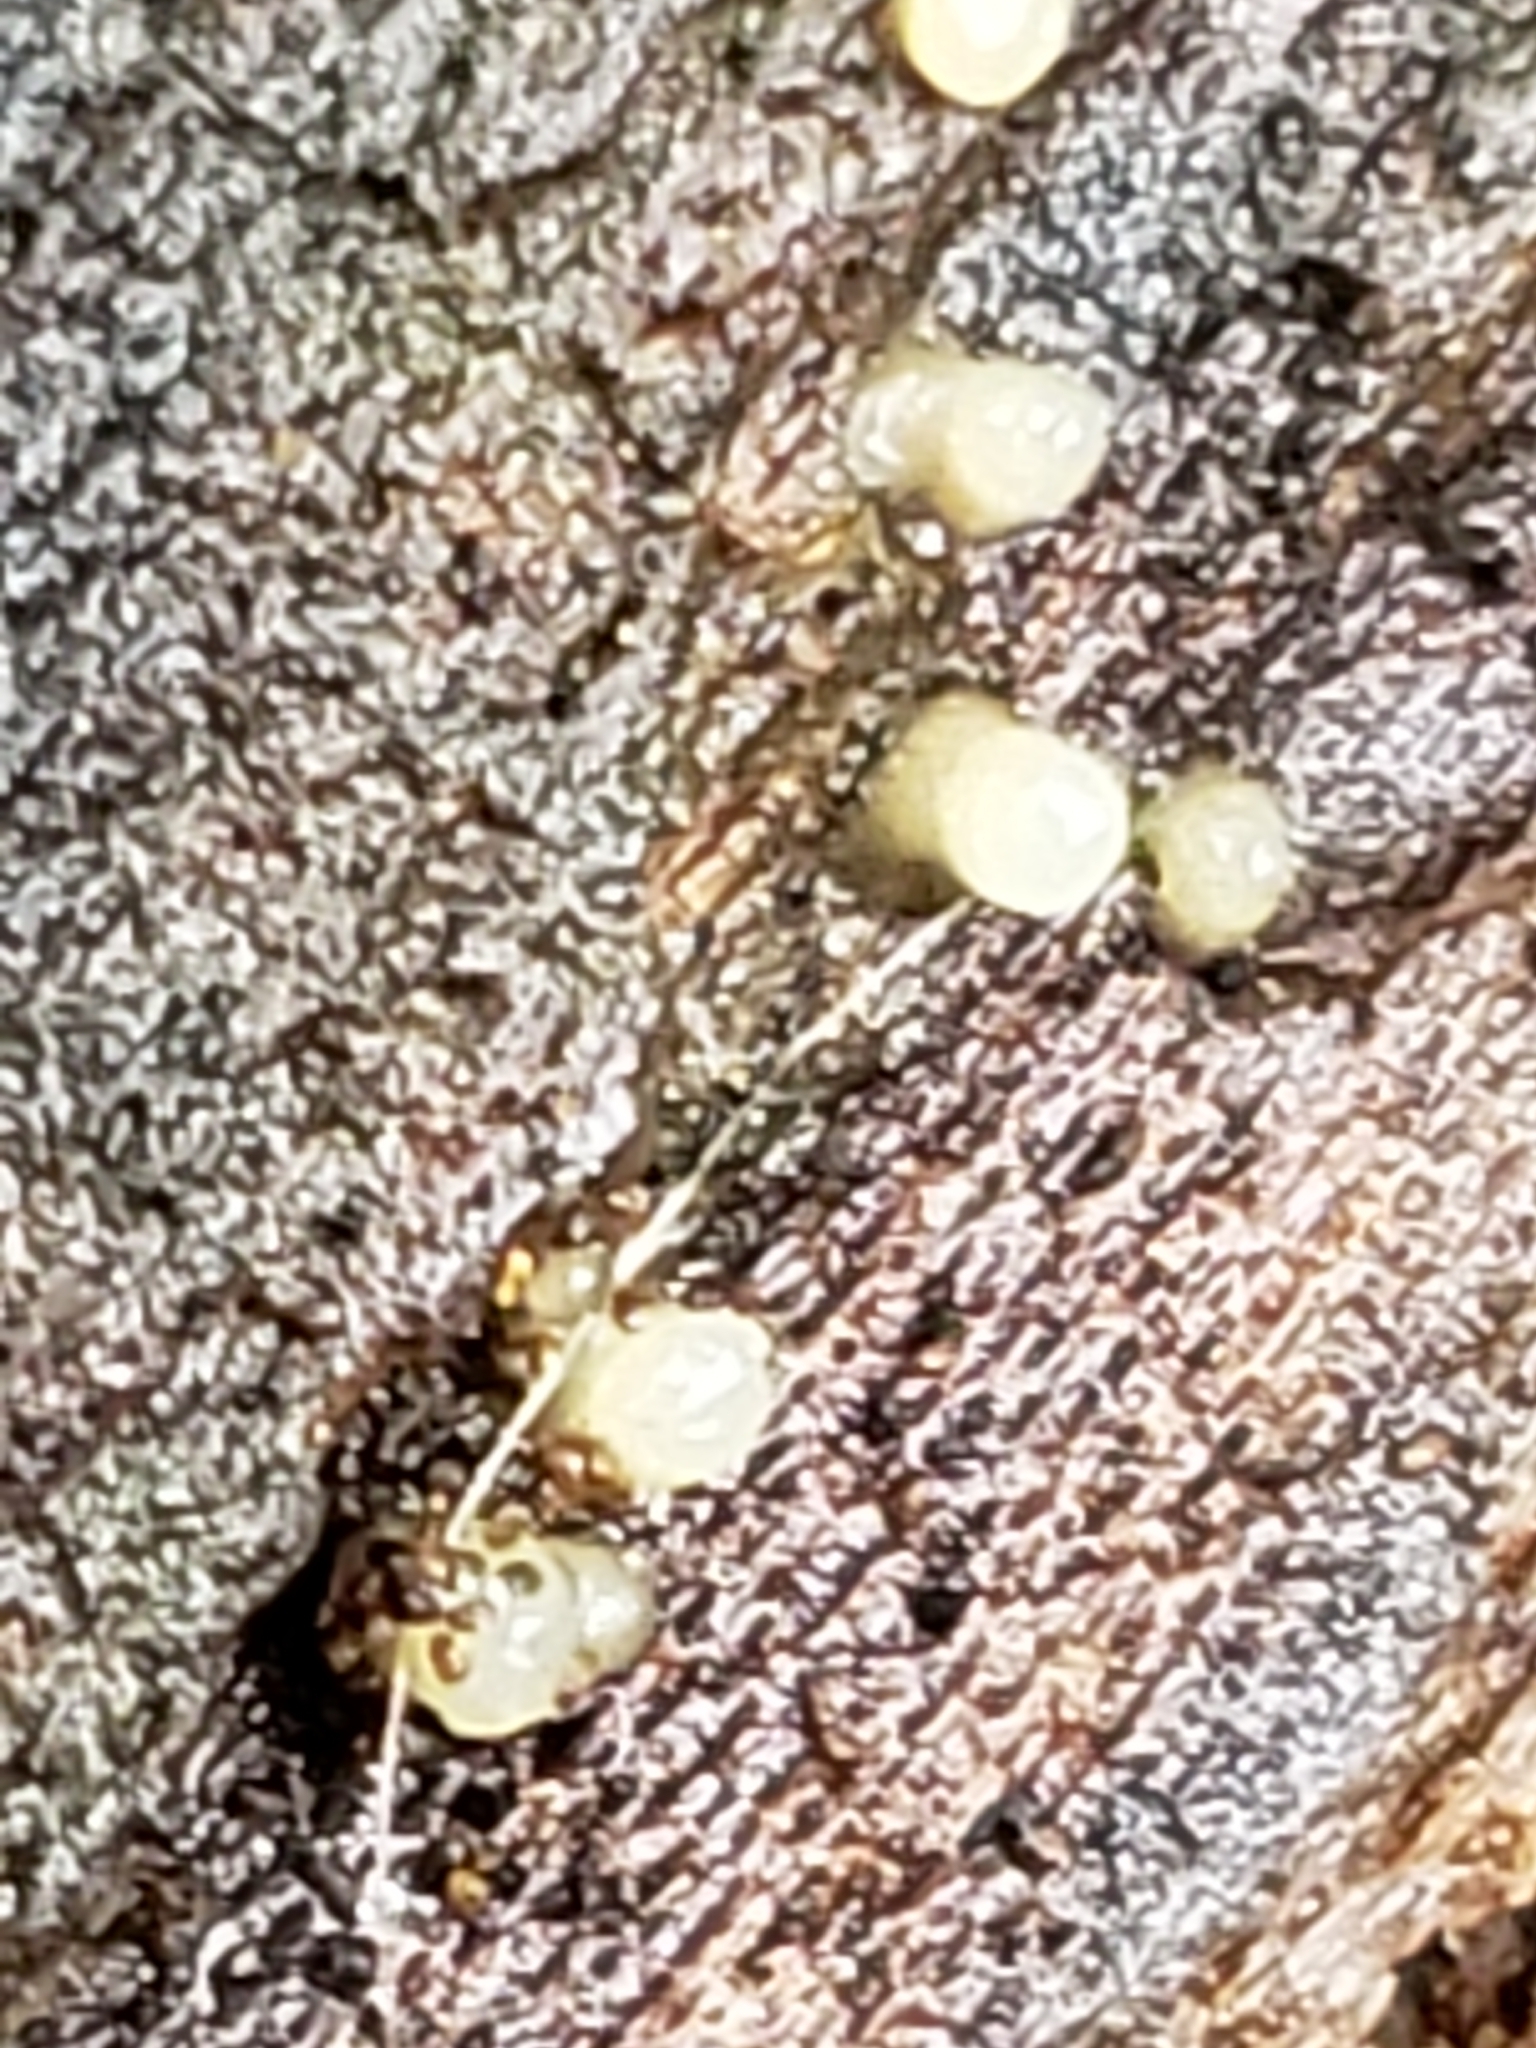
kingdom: Fungi
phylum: Basidiomycota
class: Atractiellomycetes
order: Atractiellales
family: Phleogenaceae
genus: Helicogloea
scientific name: Helicogloea compressa
